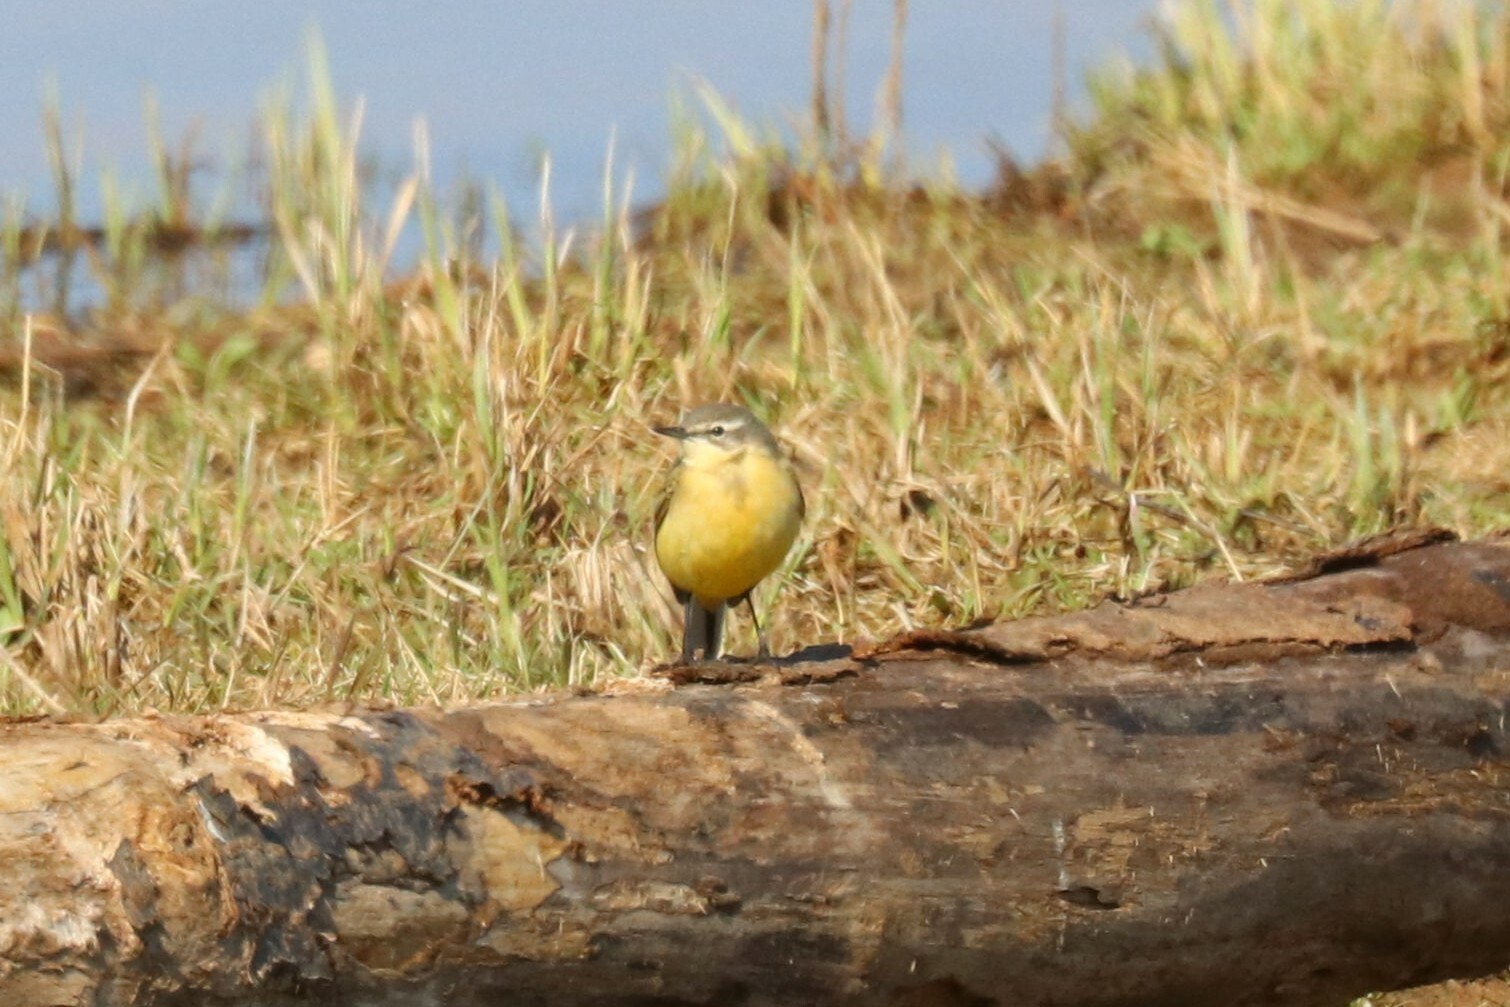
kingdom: Animalia
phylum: Chordata
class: Aves
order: Passeriformes
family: Motacillidae
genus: Motacilla
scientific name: Motacilla flava
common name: Western yellow wagtail
